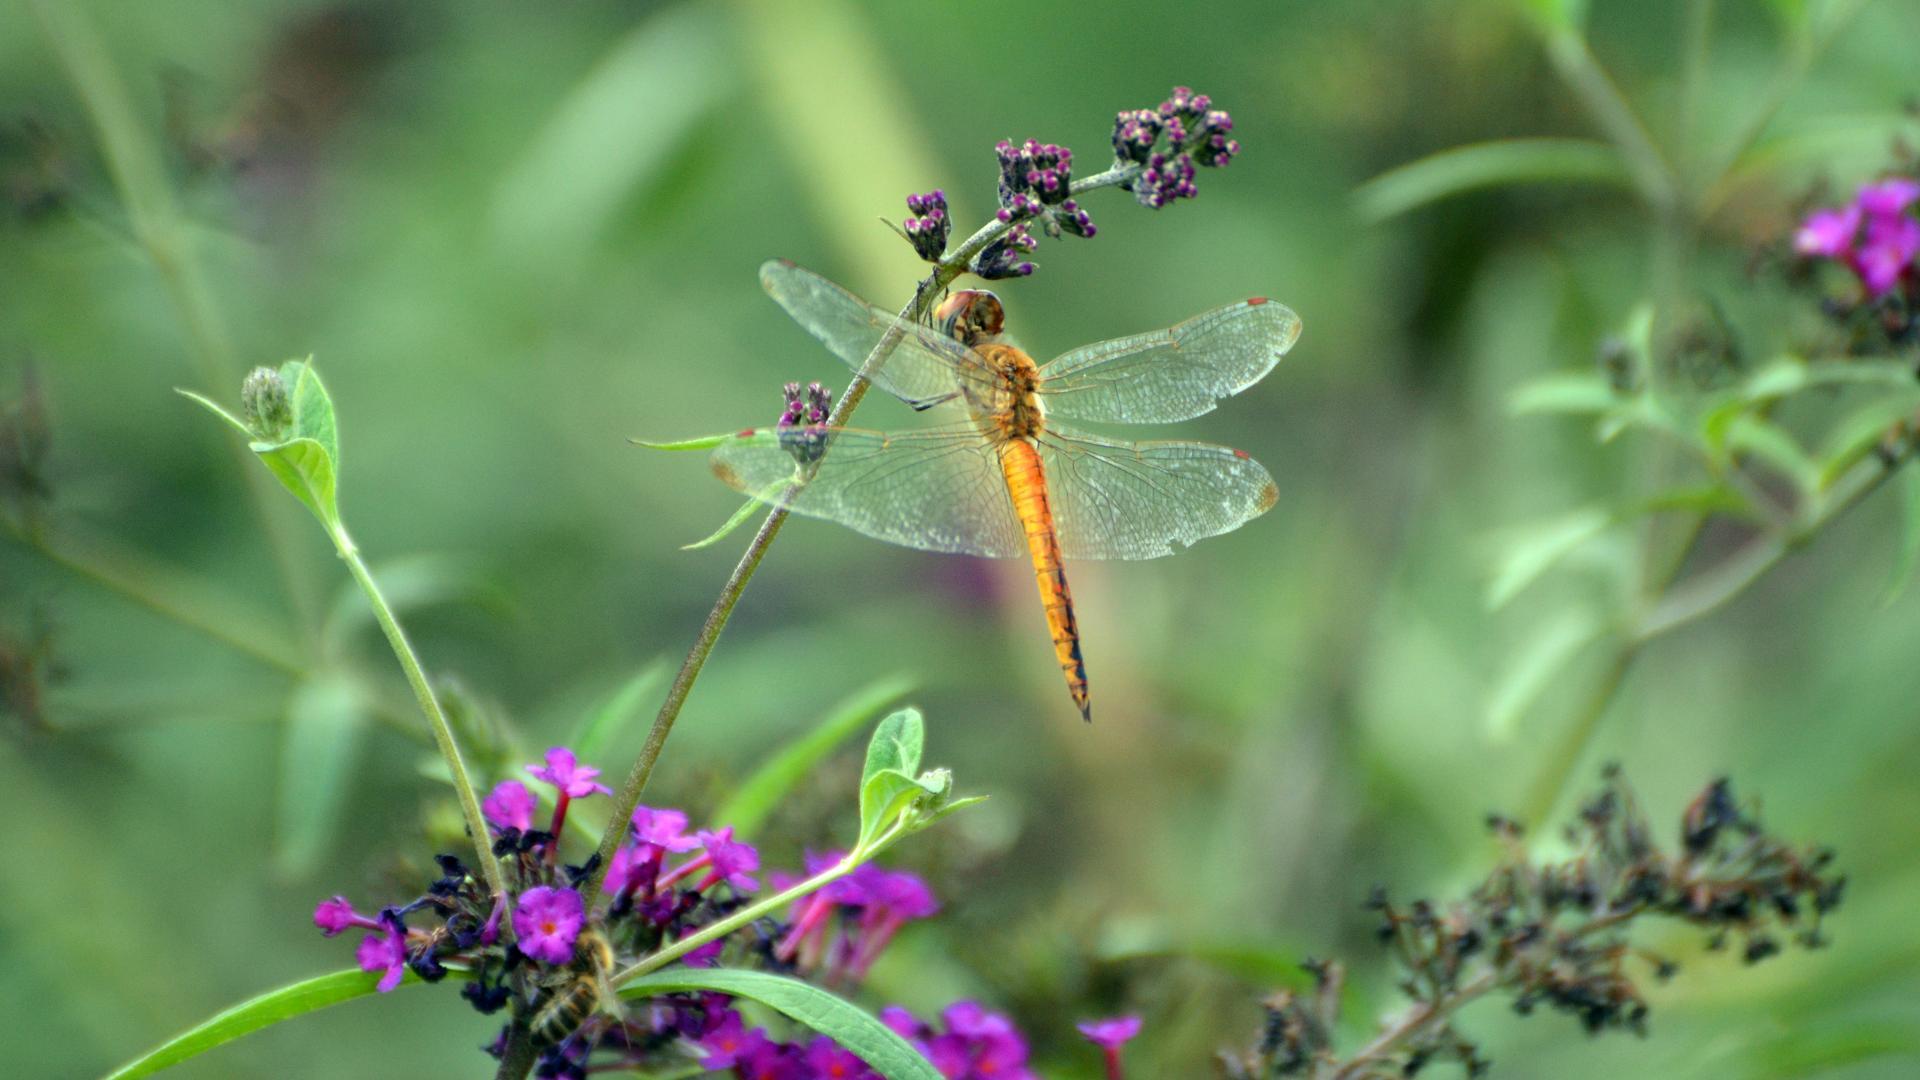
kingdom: Animalia
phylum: Arthropoda
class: Insecta
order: Odonata
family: Libellulidae
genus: Pantala
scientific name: Pantala flavescens
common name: Wandering glider
